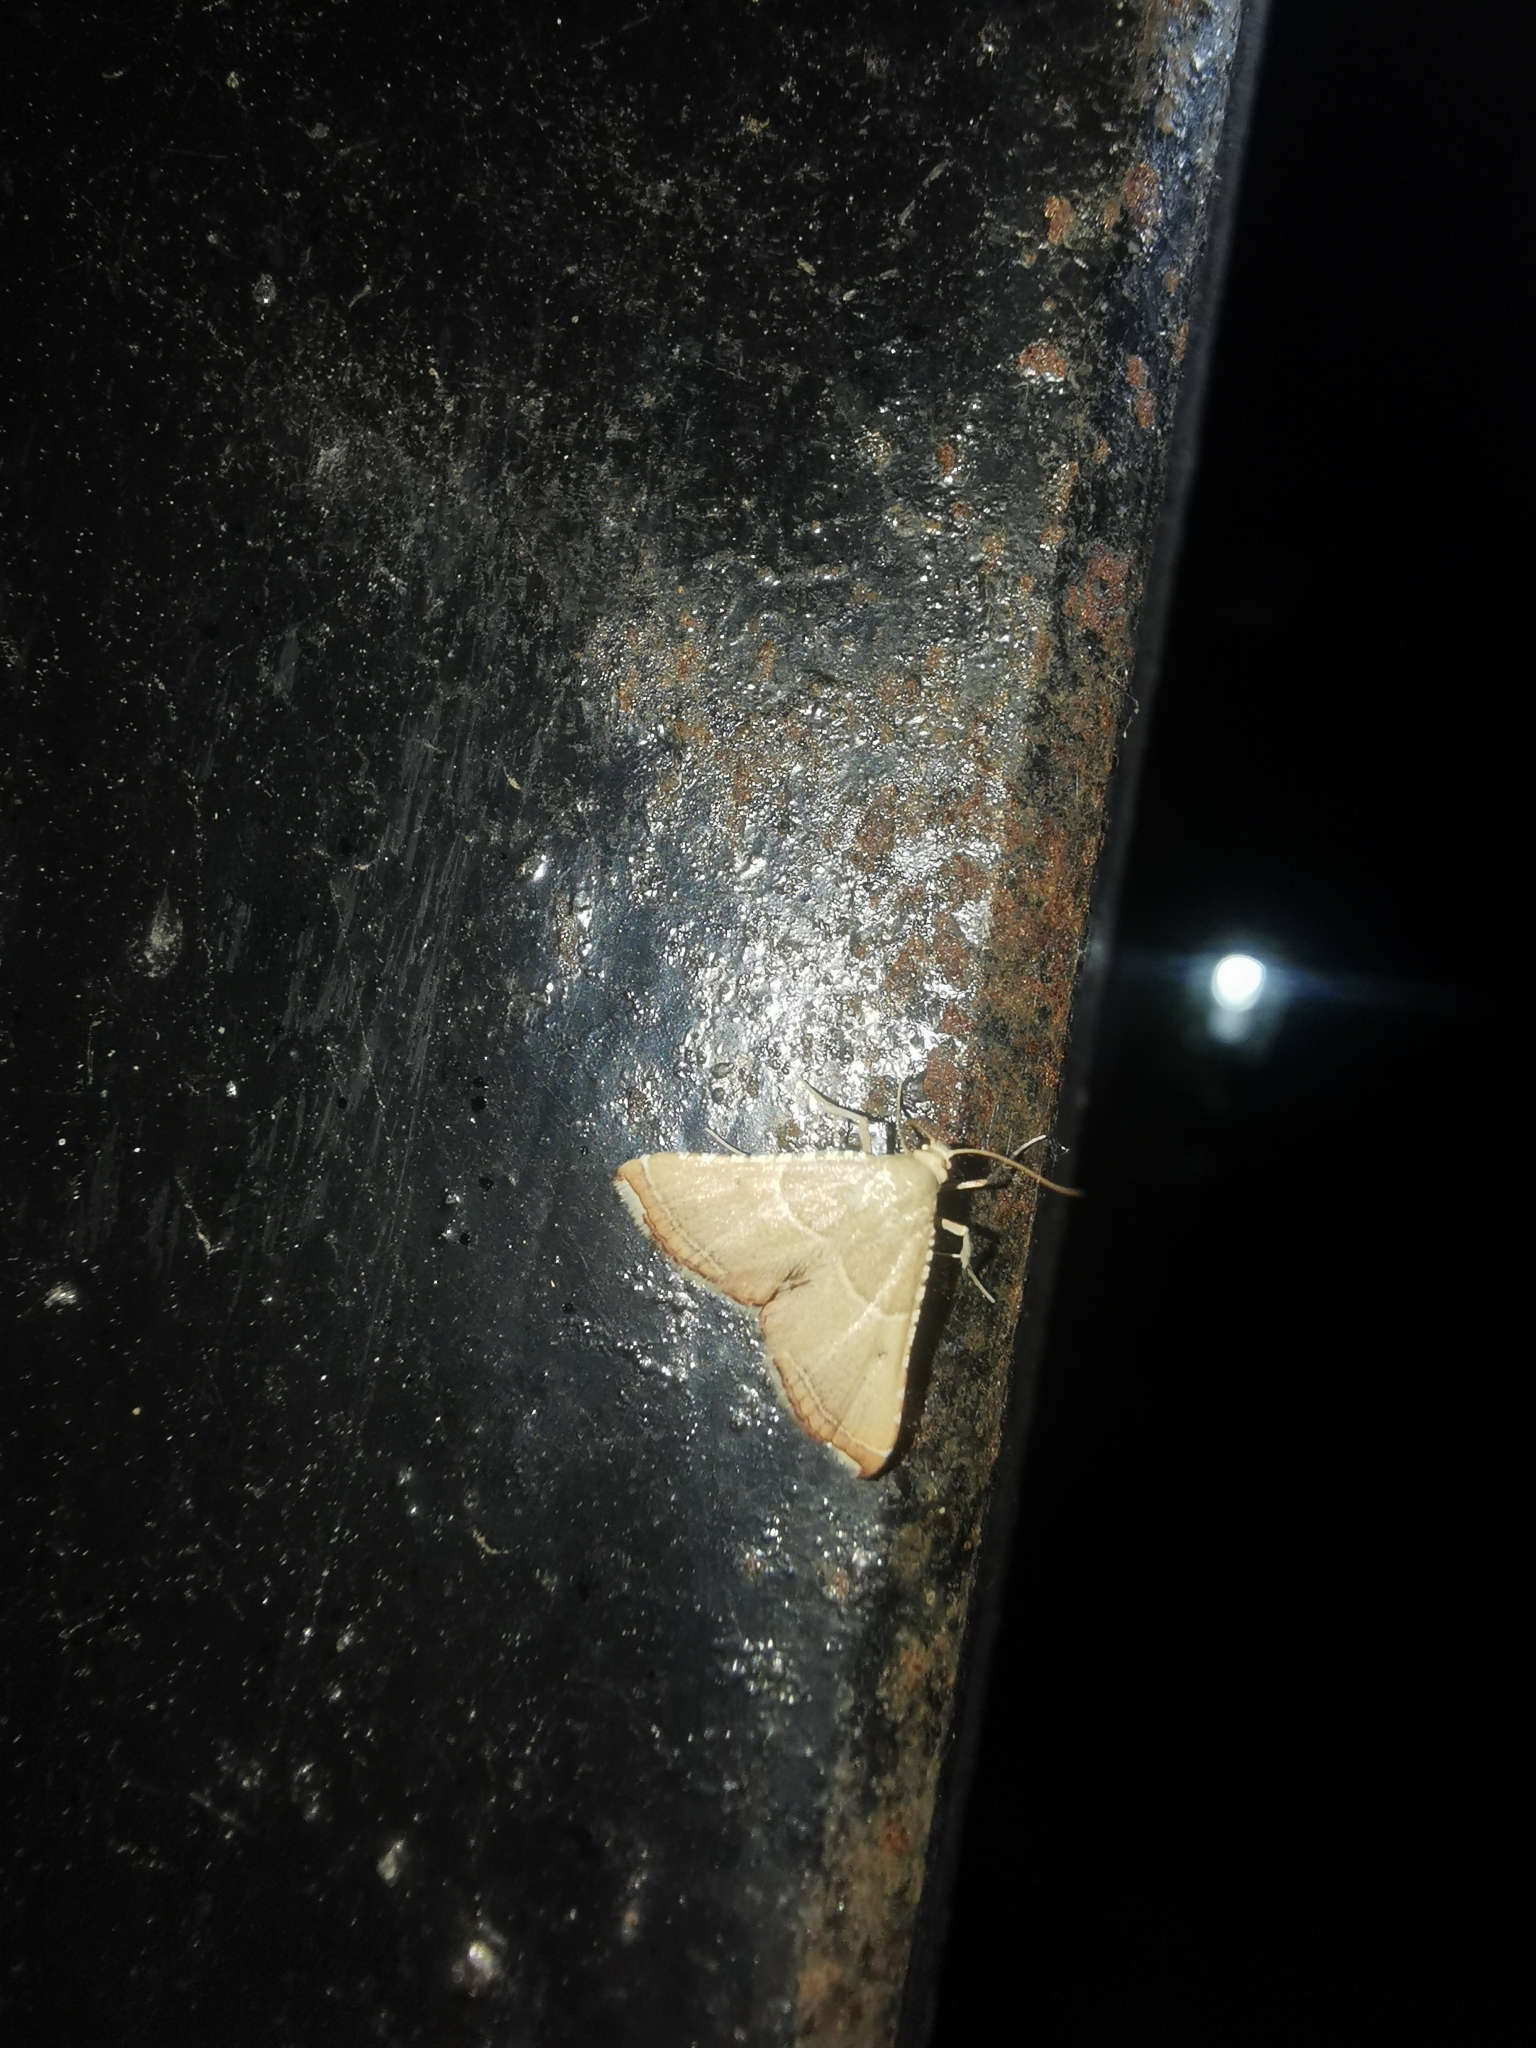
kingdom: Animalia
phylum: Arthropoda
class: Insecta
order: Lepidoptera
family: Pyralidae
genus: Endotricha
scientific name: Endotricha flammealis
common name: Rosy tabby
